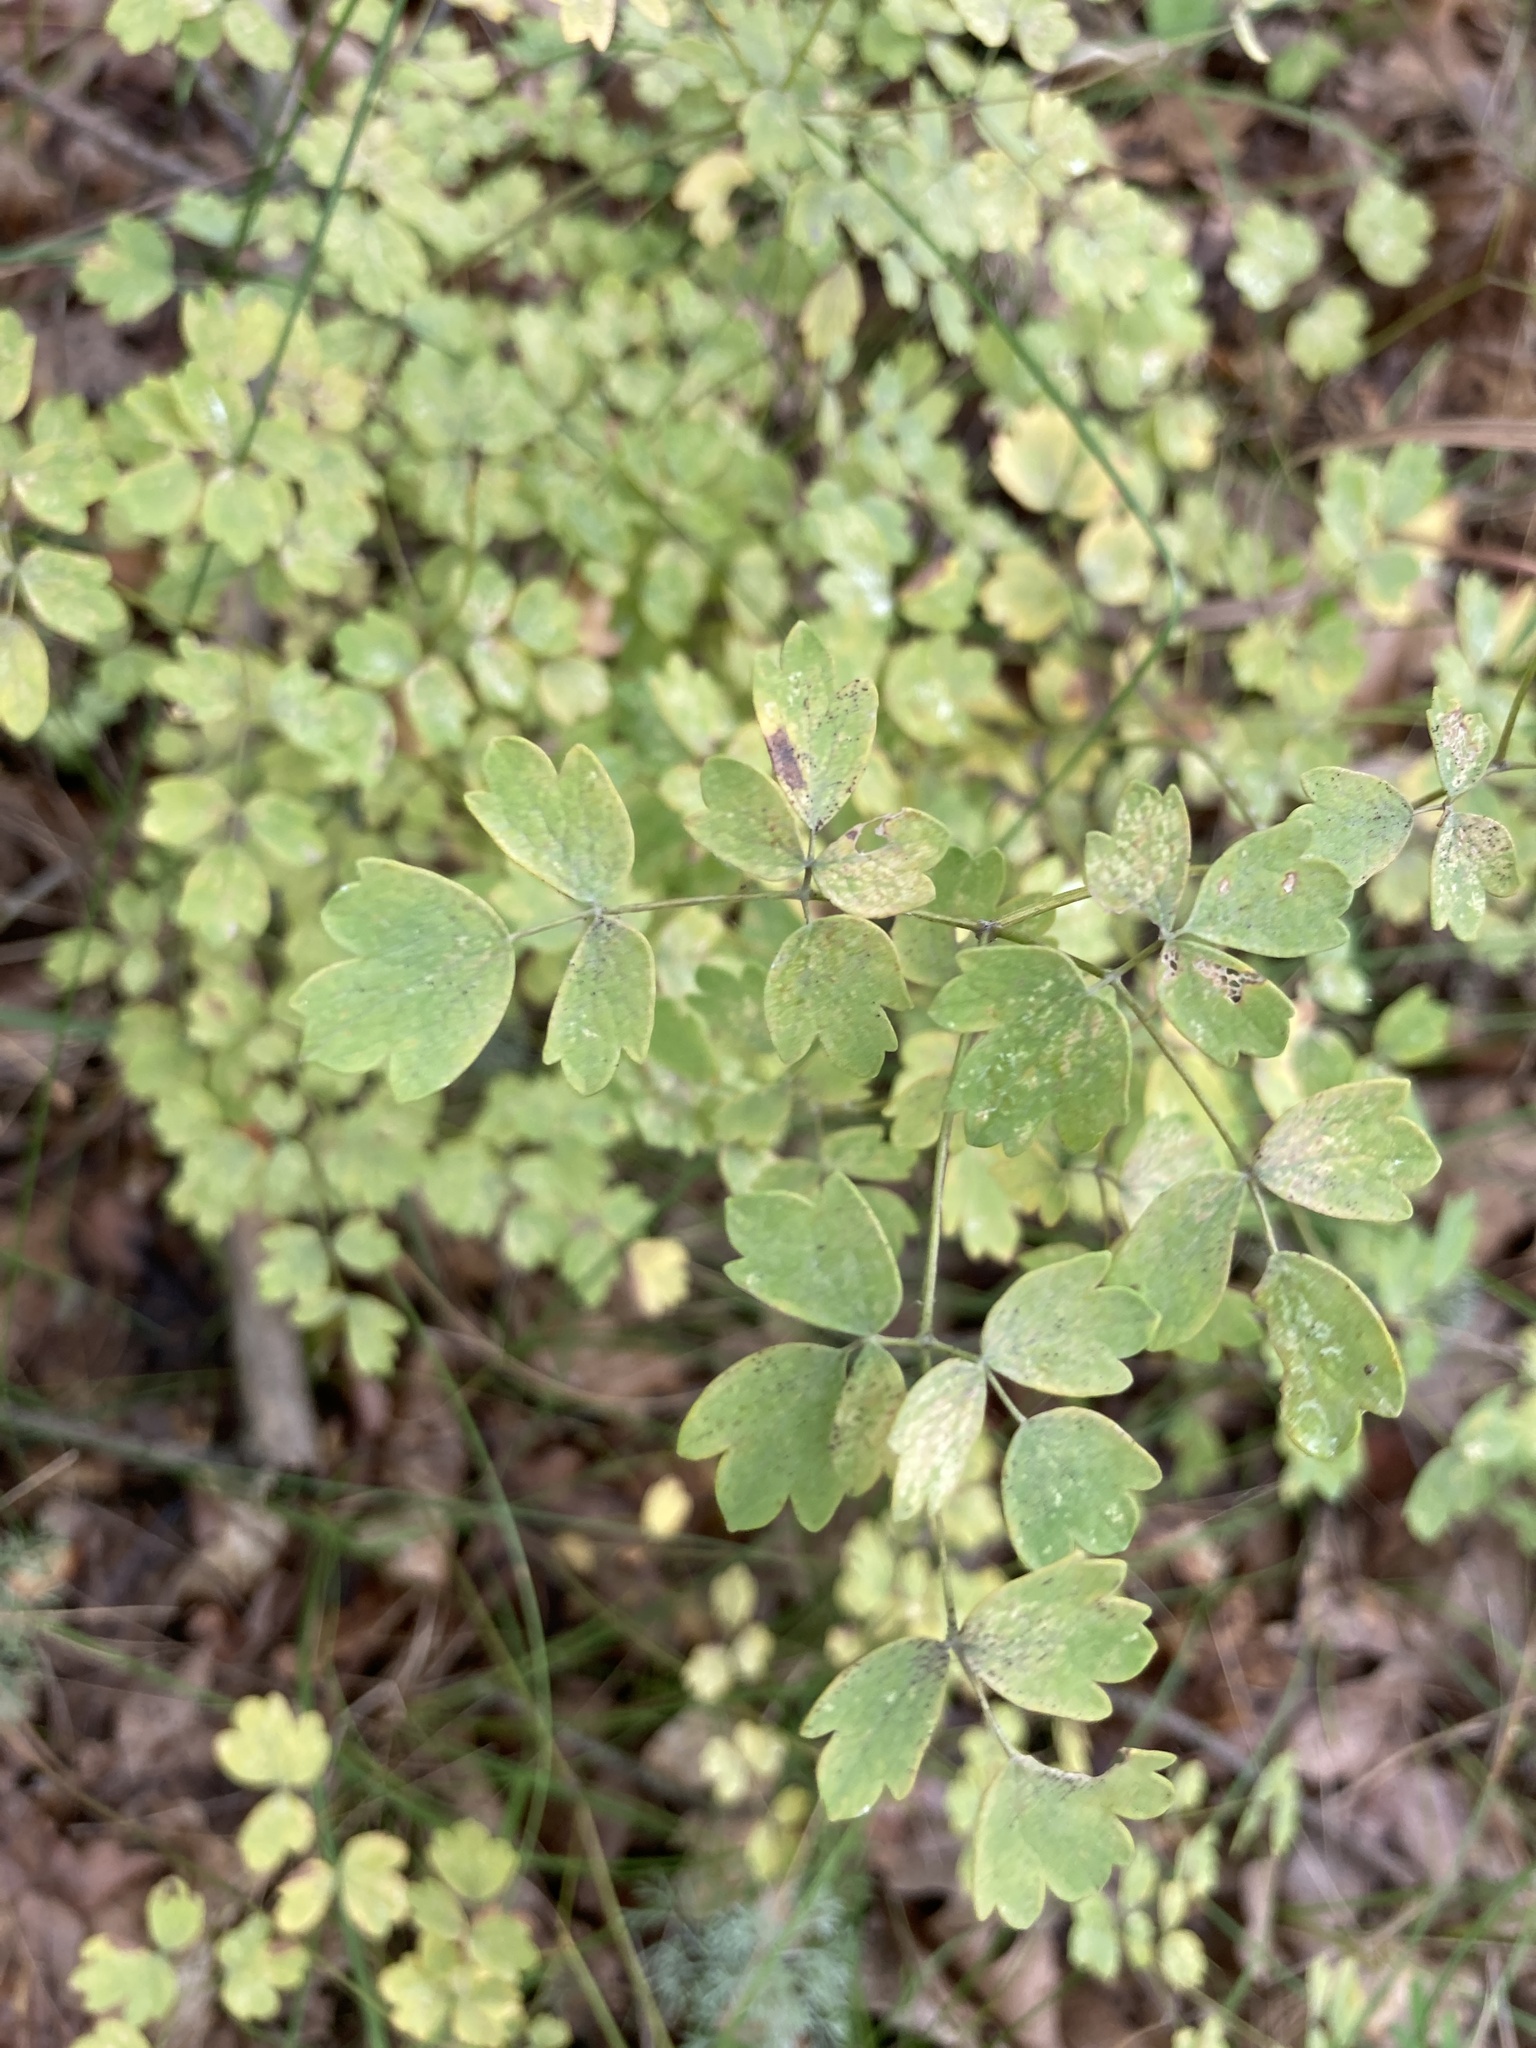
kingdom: Plantae
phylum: Tracheophyta
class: Magnoliopsida
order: Ranunculales
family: Ranunculaceae
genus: Thalictrum
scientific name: Thalictrum minus
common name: Lesser meadow-rue
